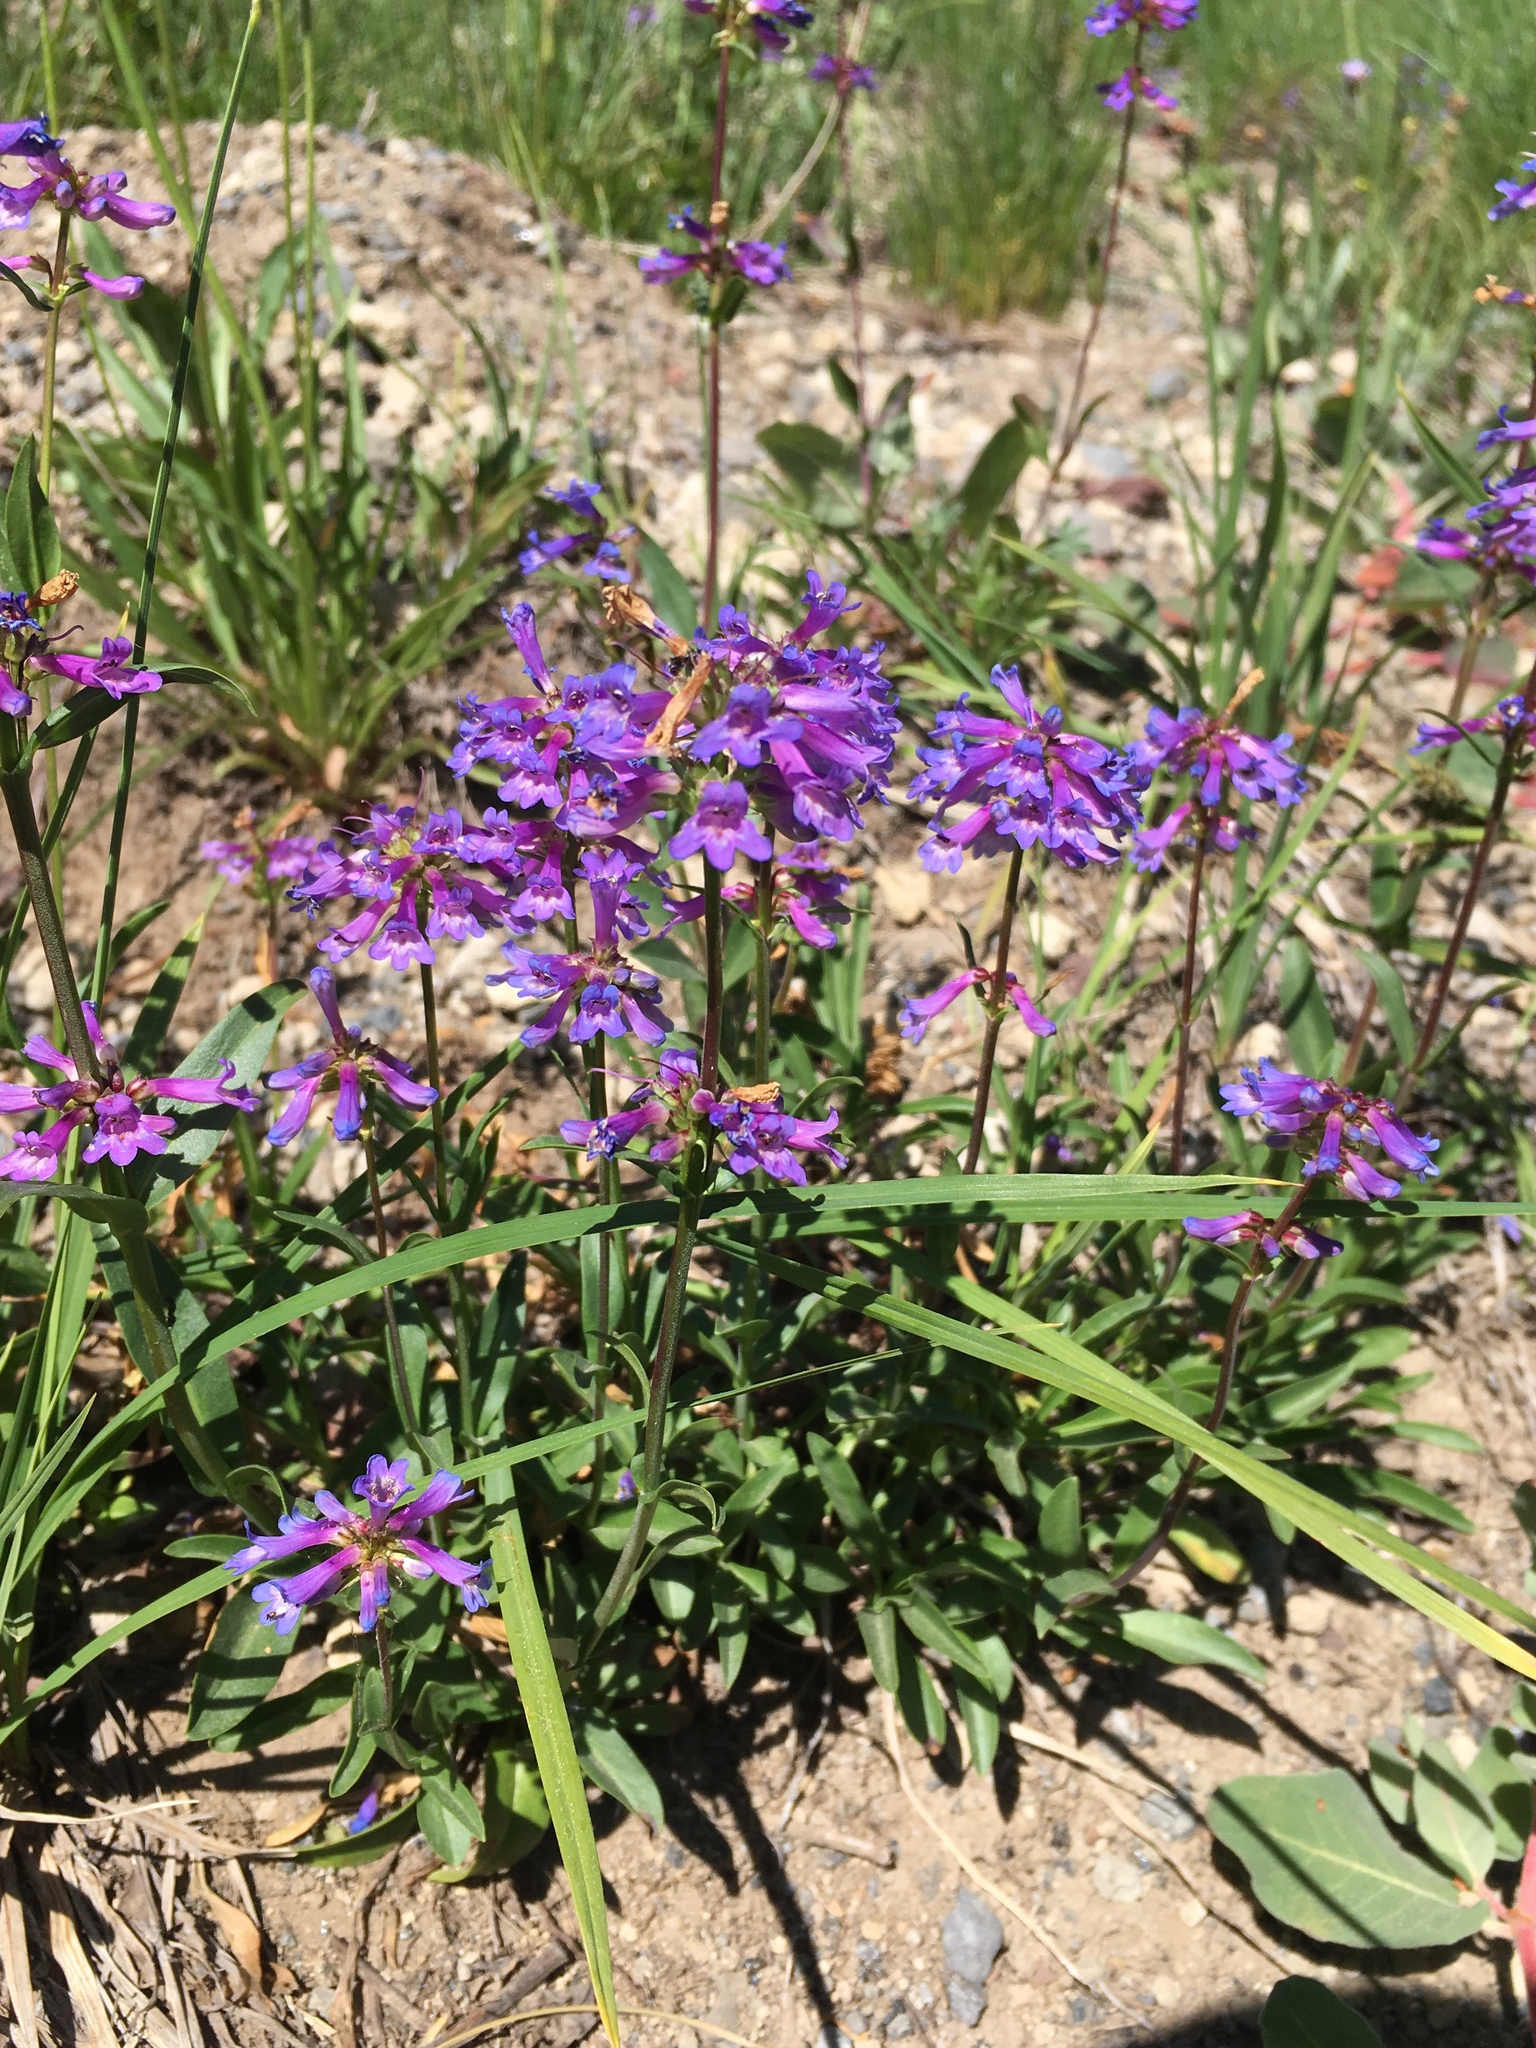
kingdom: Plantae
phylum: Tracheophyta
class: Magnoliopsida
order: Lamiales
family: Plantaginaceae
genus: Penstemon
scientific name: Penstemon procerus
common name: Small-flower penstemon
